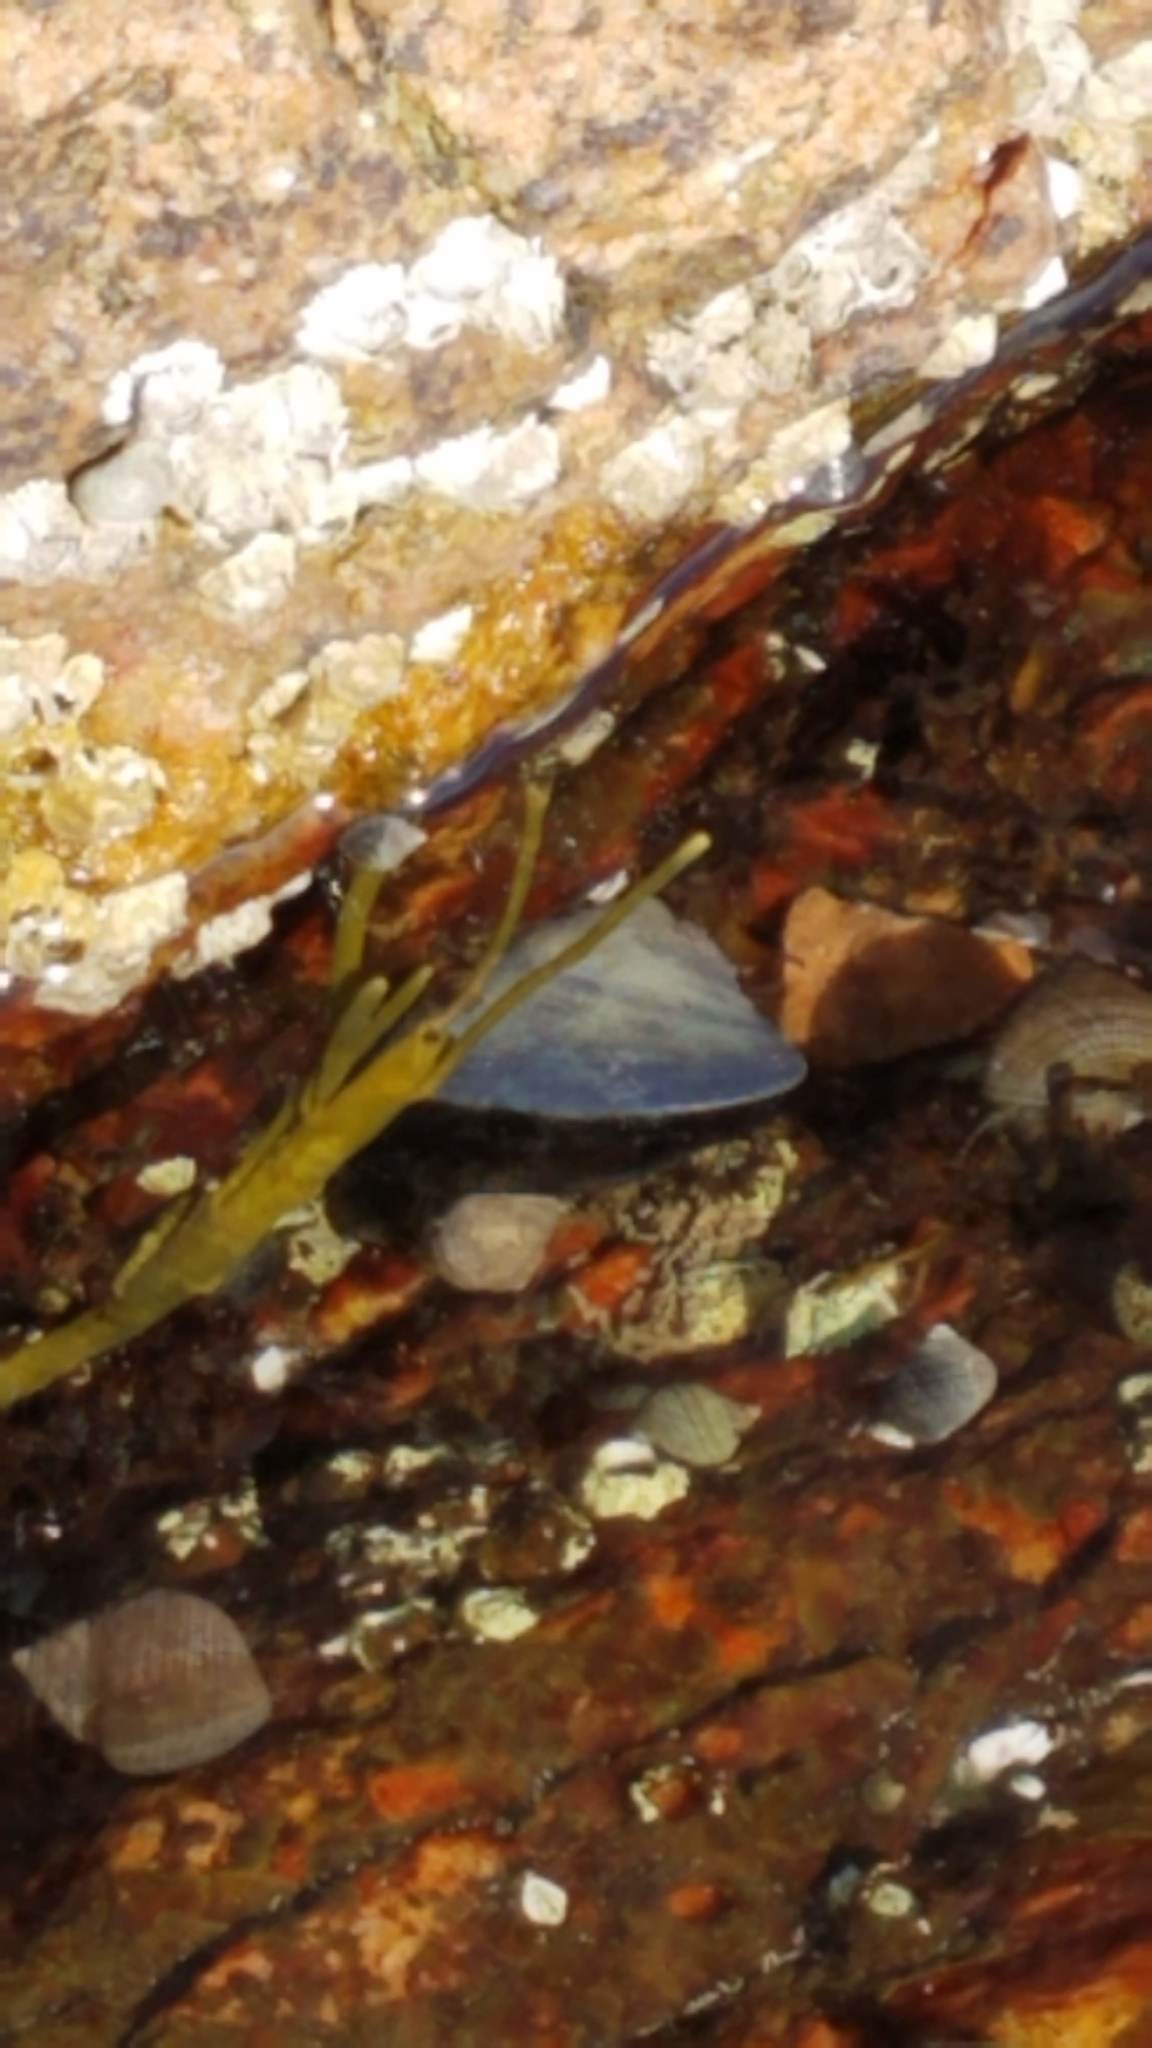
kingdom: Animalia
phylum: Mollusca
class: Bivalvia
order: Mytilida
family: Mytilidae
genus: Mytilus
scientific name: Mytilus edulis
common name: Blue mussel
